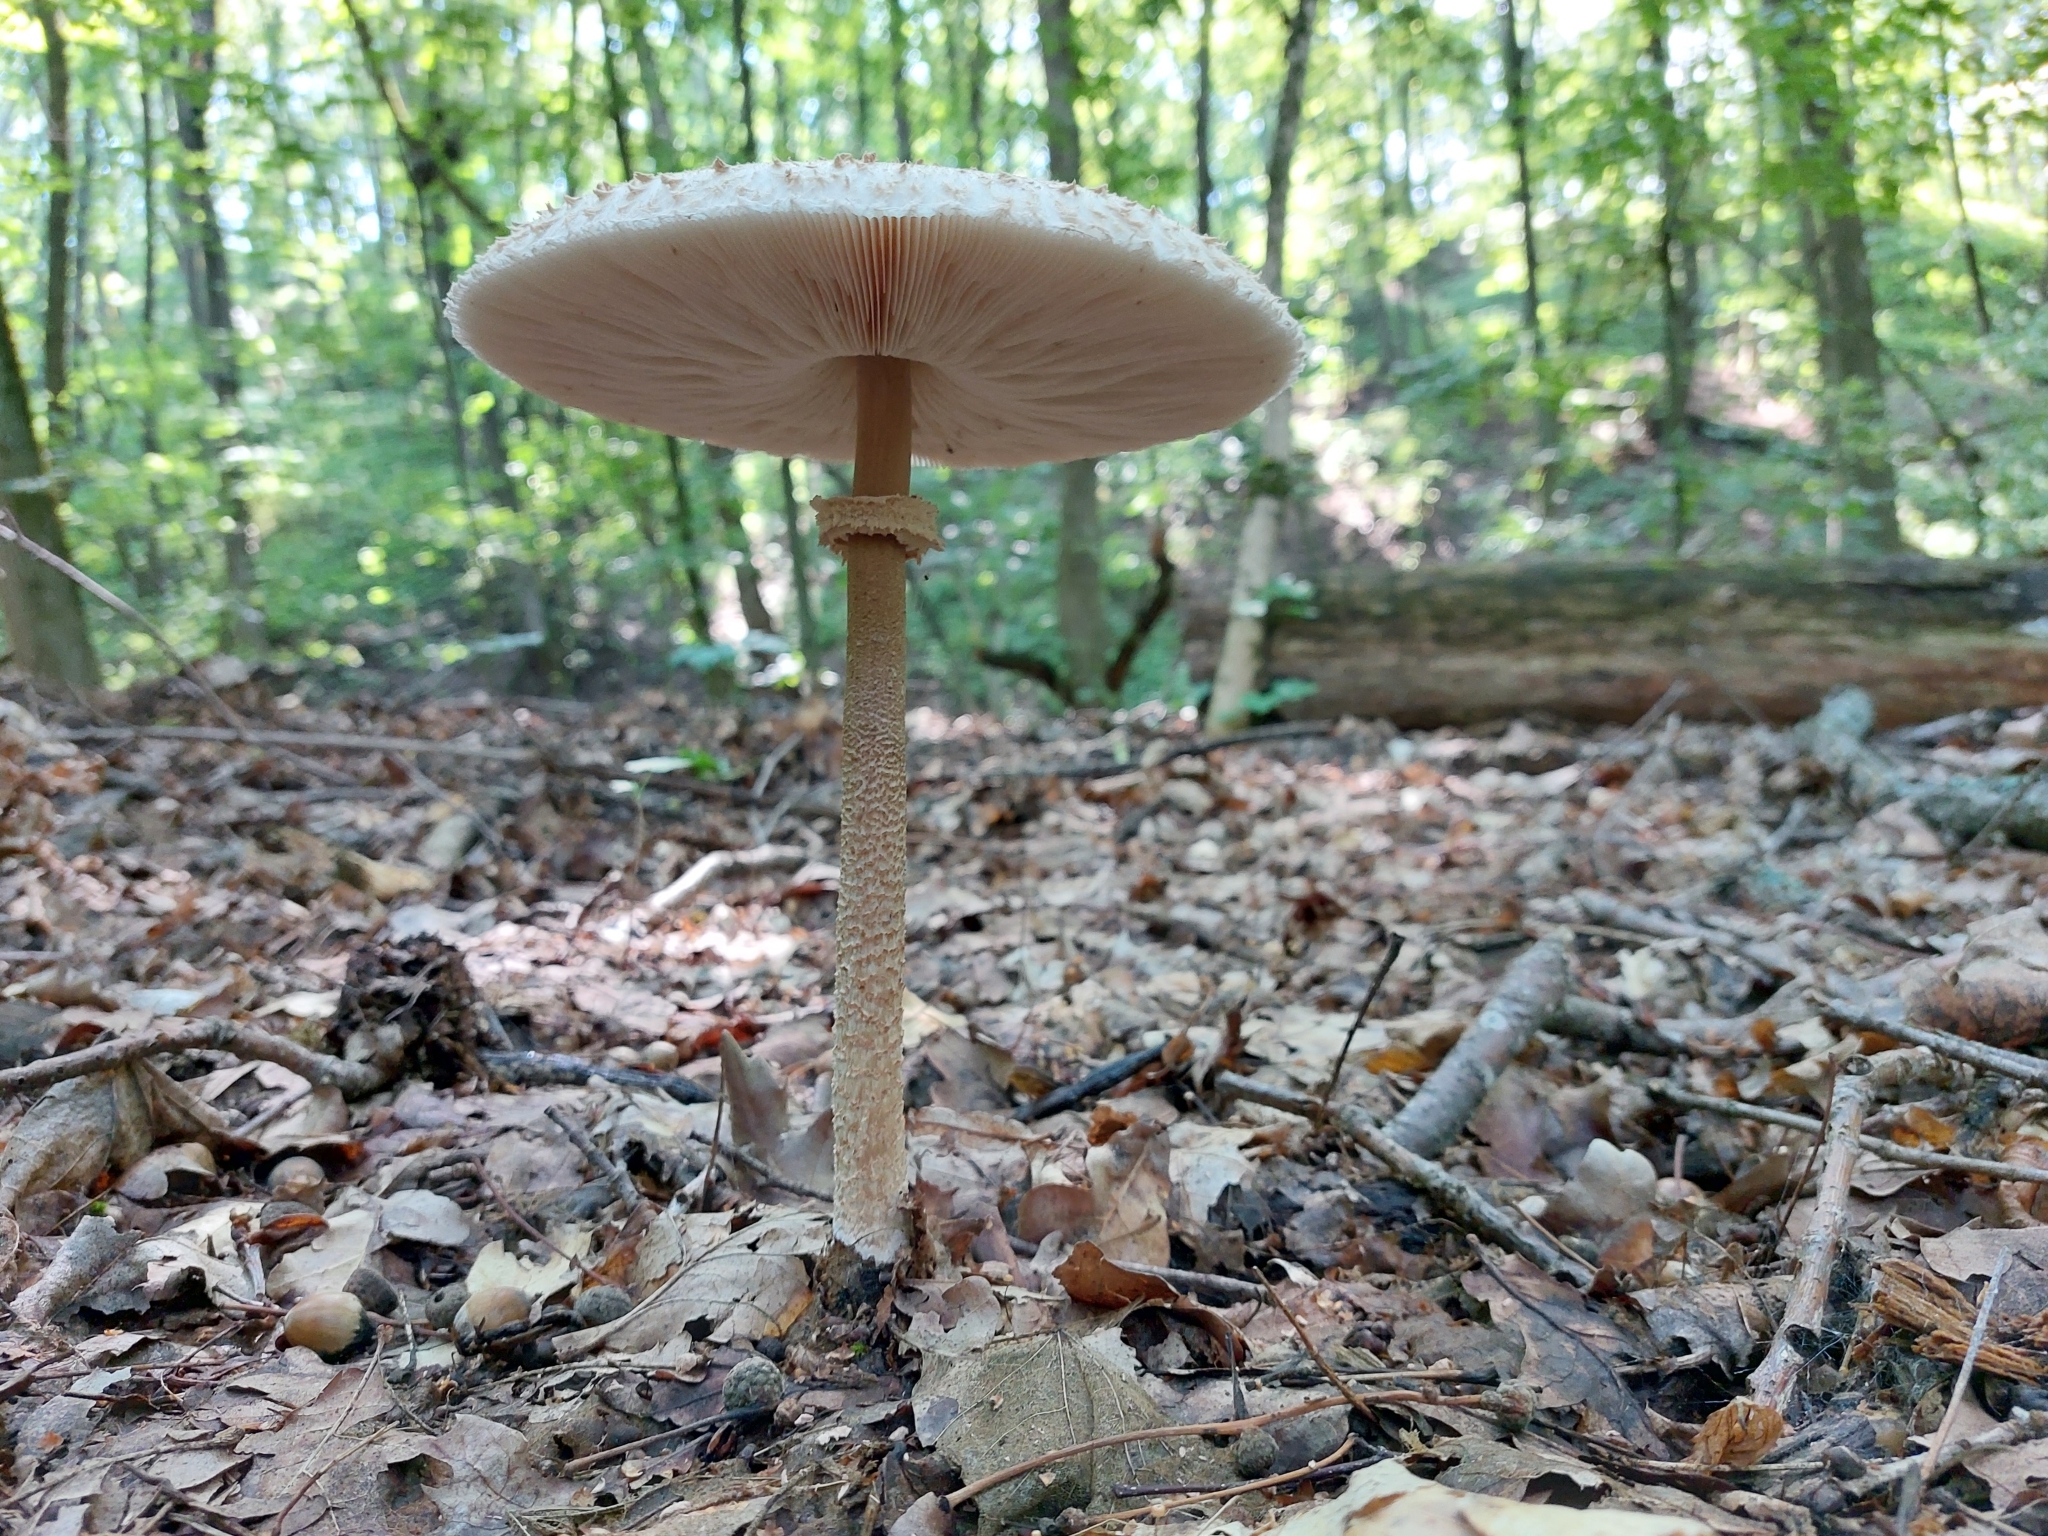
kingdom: Fungi
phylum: Basidiomycota
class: Agaricomycetes
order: Agaricales
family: Agaricaceae
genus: Macrolepiota
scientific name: Macrolepiota procera
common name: Parasol
